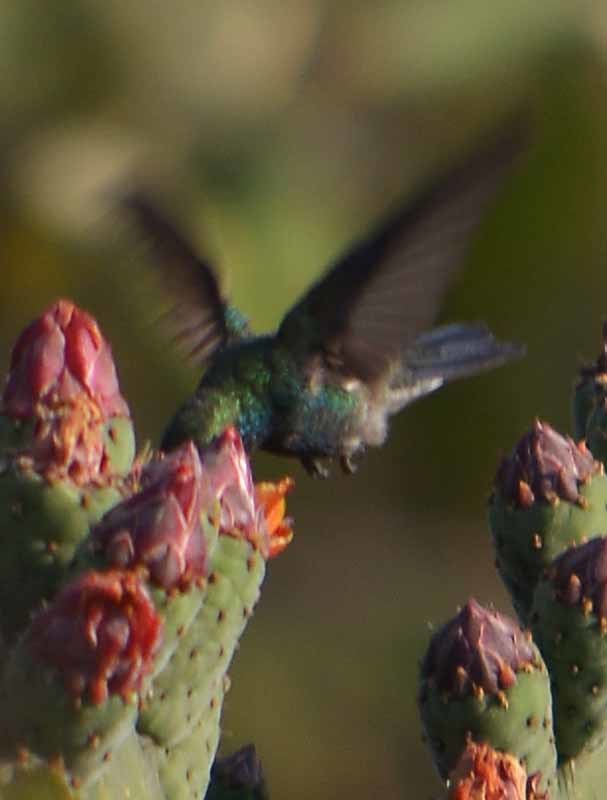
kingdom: Animalia
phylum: Chordata
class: Aves
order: Apodiformes
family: Trochilidae
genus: Cynanthus
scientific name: Cynanthus latirostris
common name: Broad-billed hummingbird
